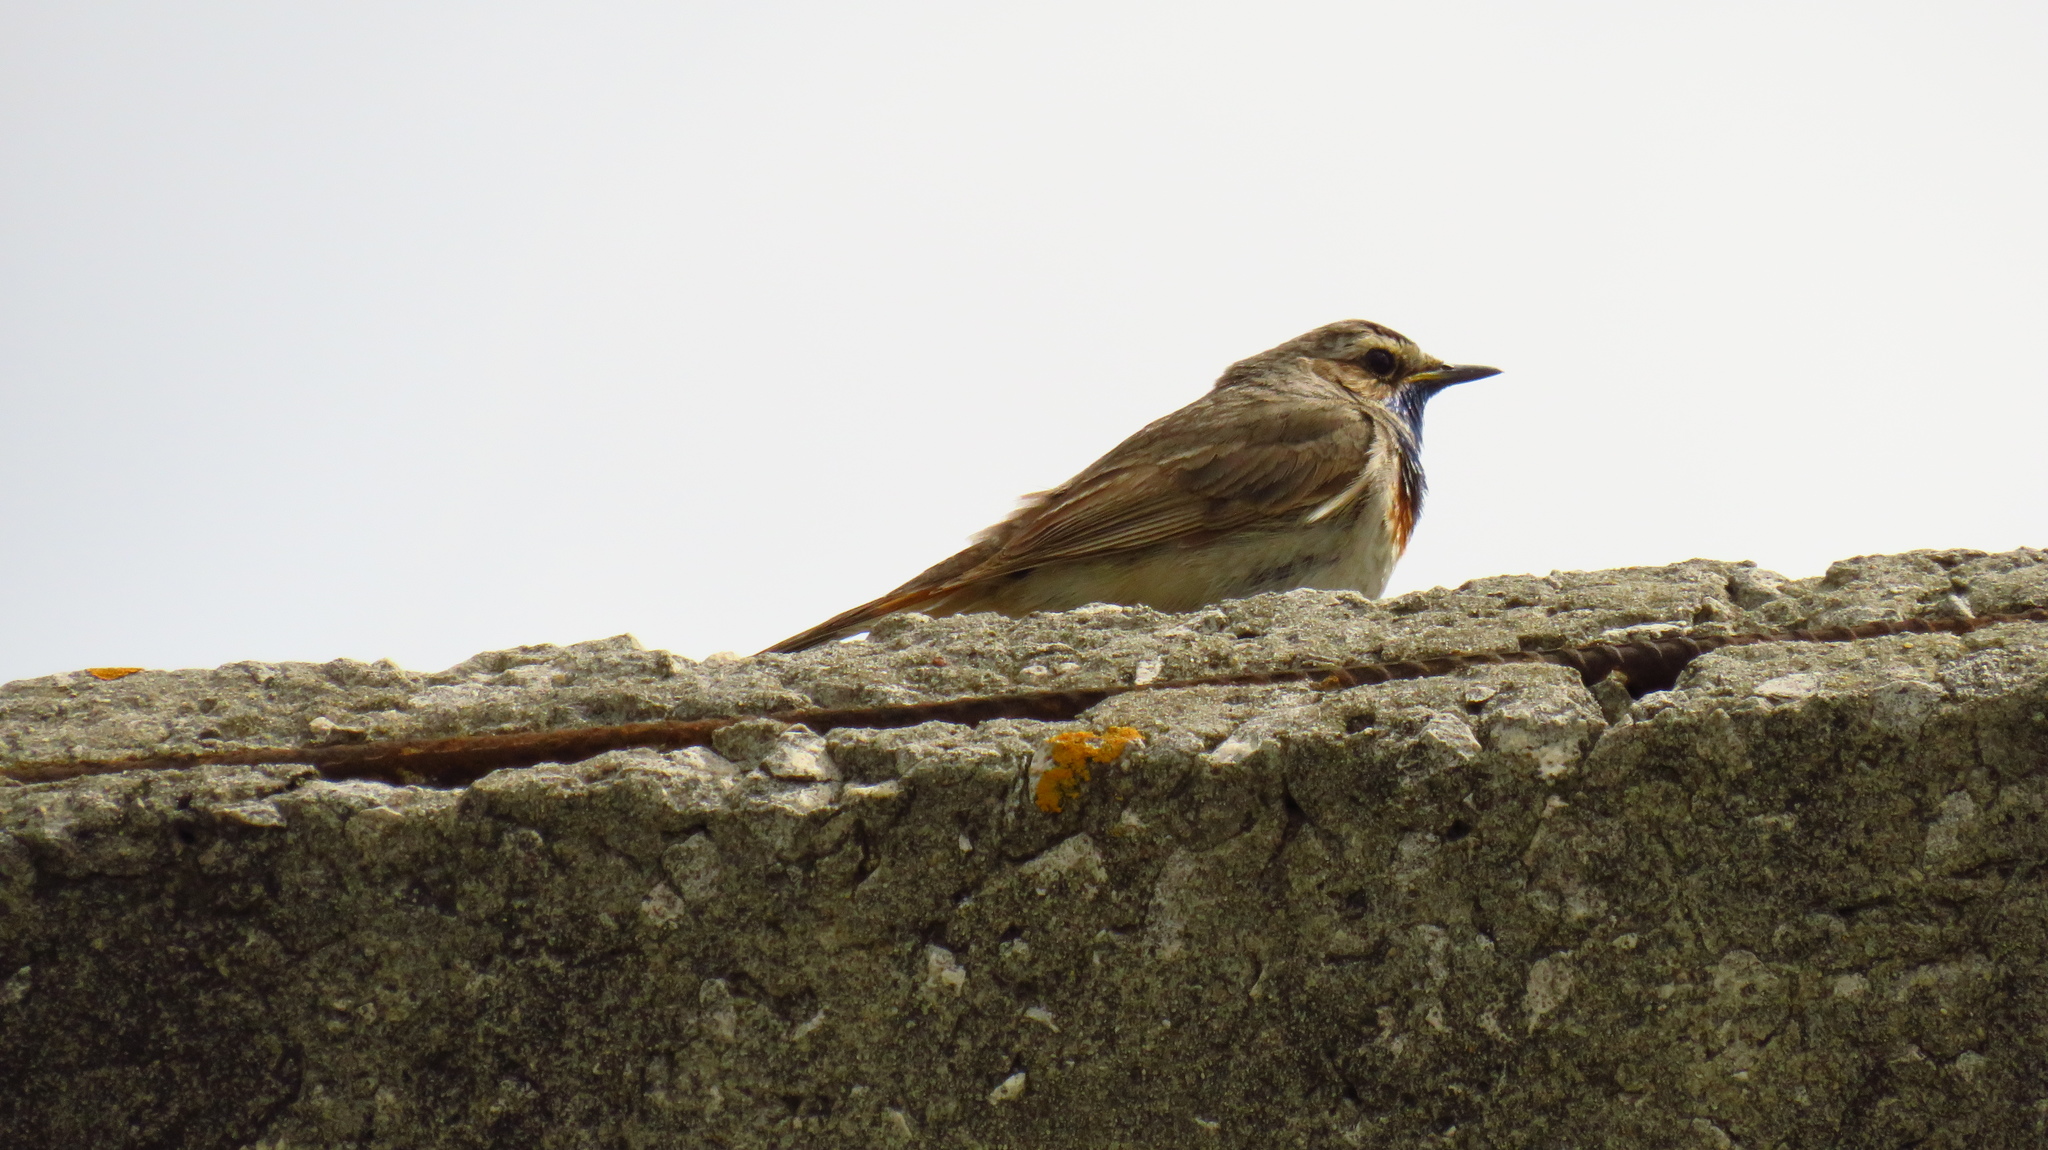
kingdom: Animalia
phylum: Chordata
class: Aves
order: Passeriformes
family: Muscicapidae
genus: Luscinia
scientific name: Luscinia svecica
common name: Bluethroat
